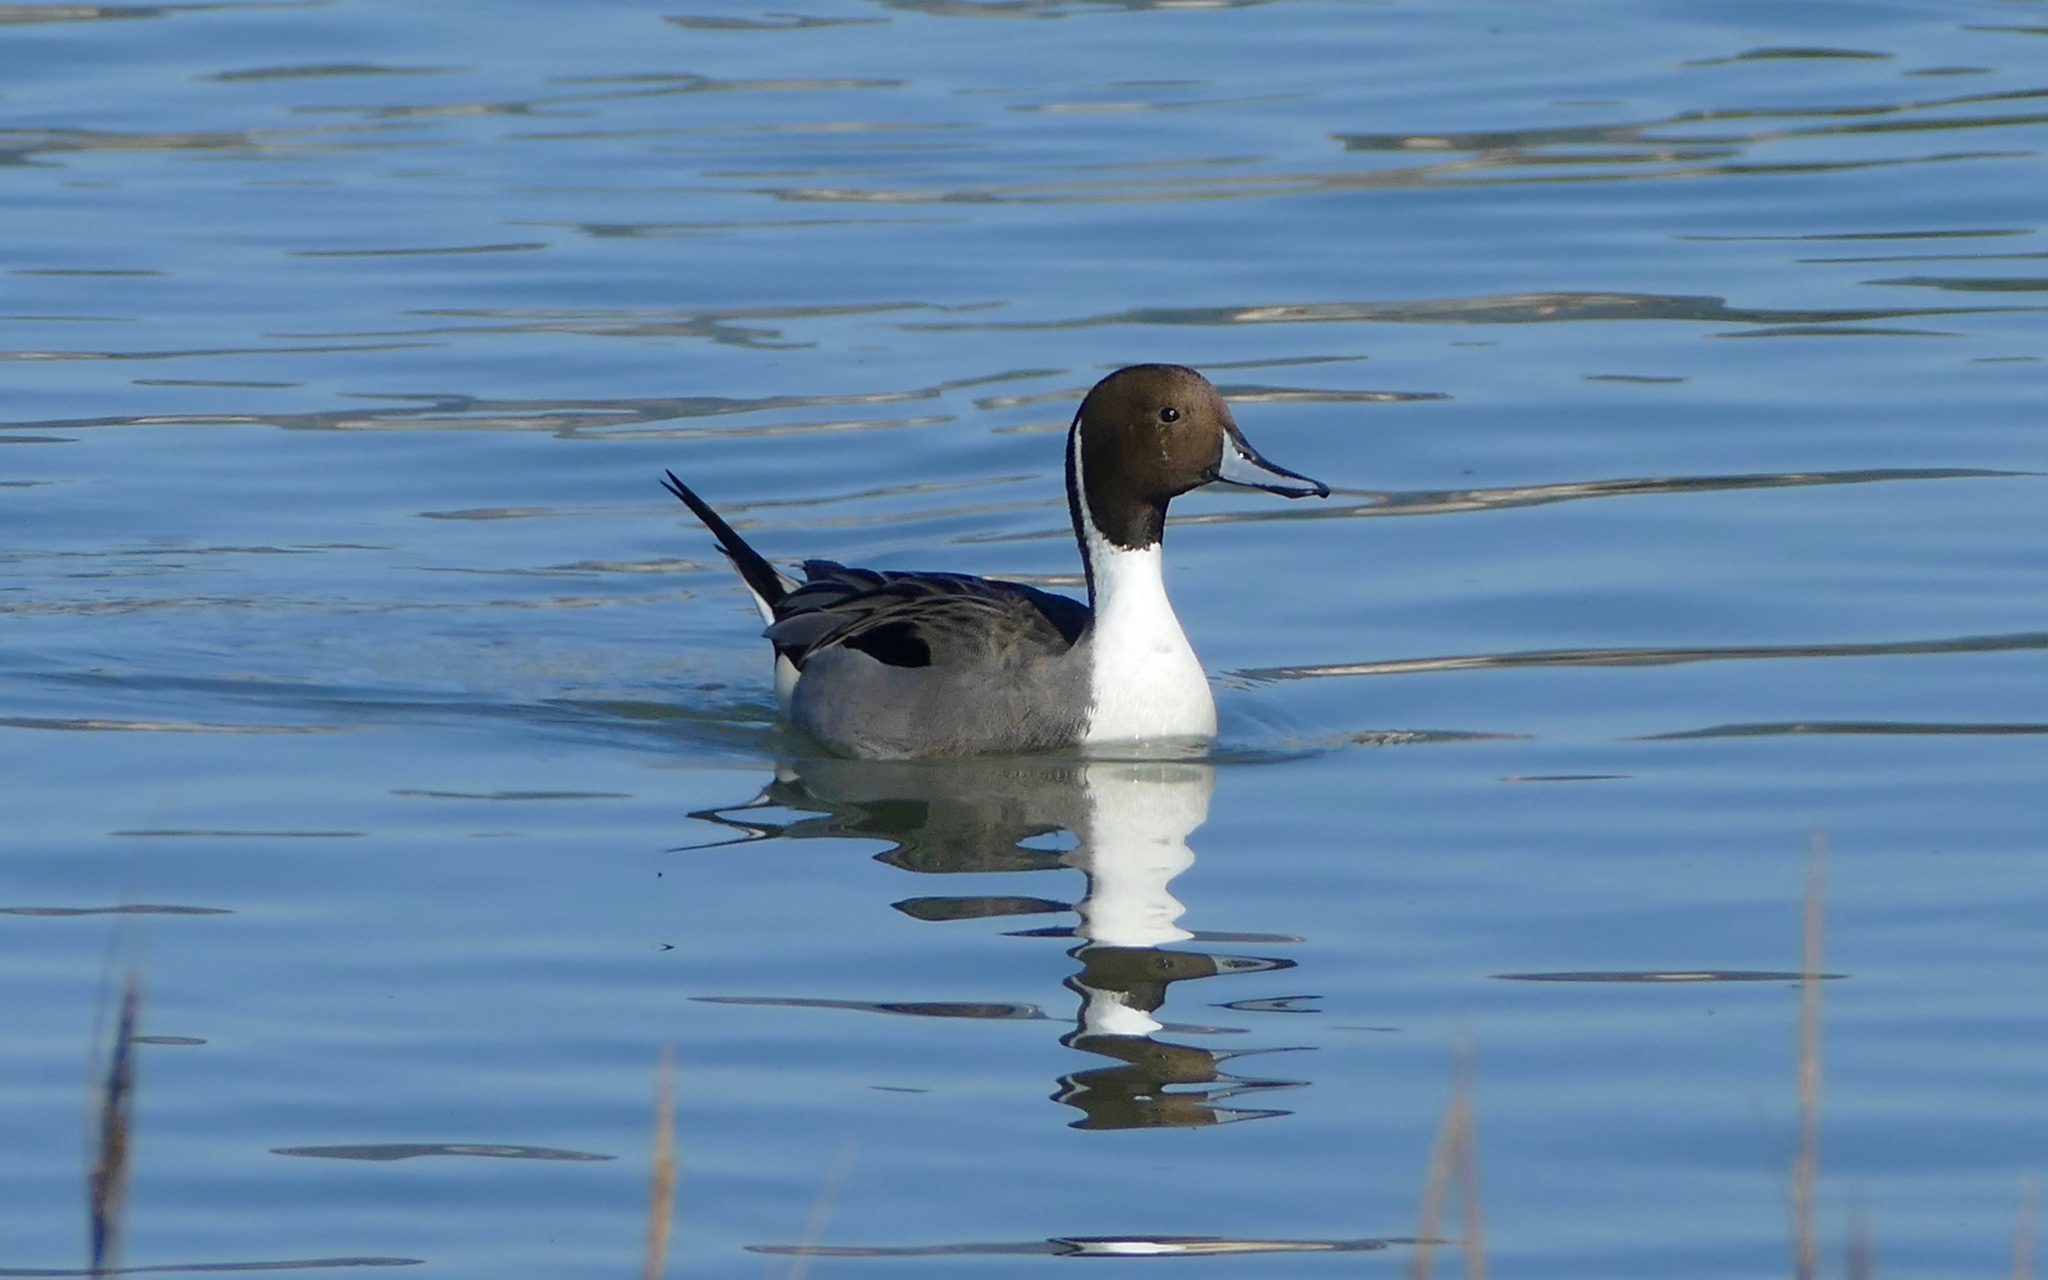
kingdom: Animalia
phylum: Chordata
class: Aves
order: Anseriformes
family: Anatidae
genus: Anas
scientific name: Anas acuta
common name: Northern pintail
